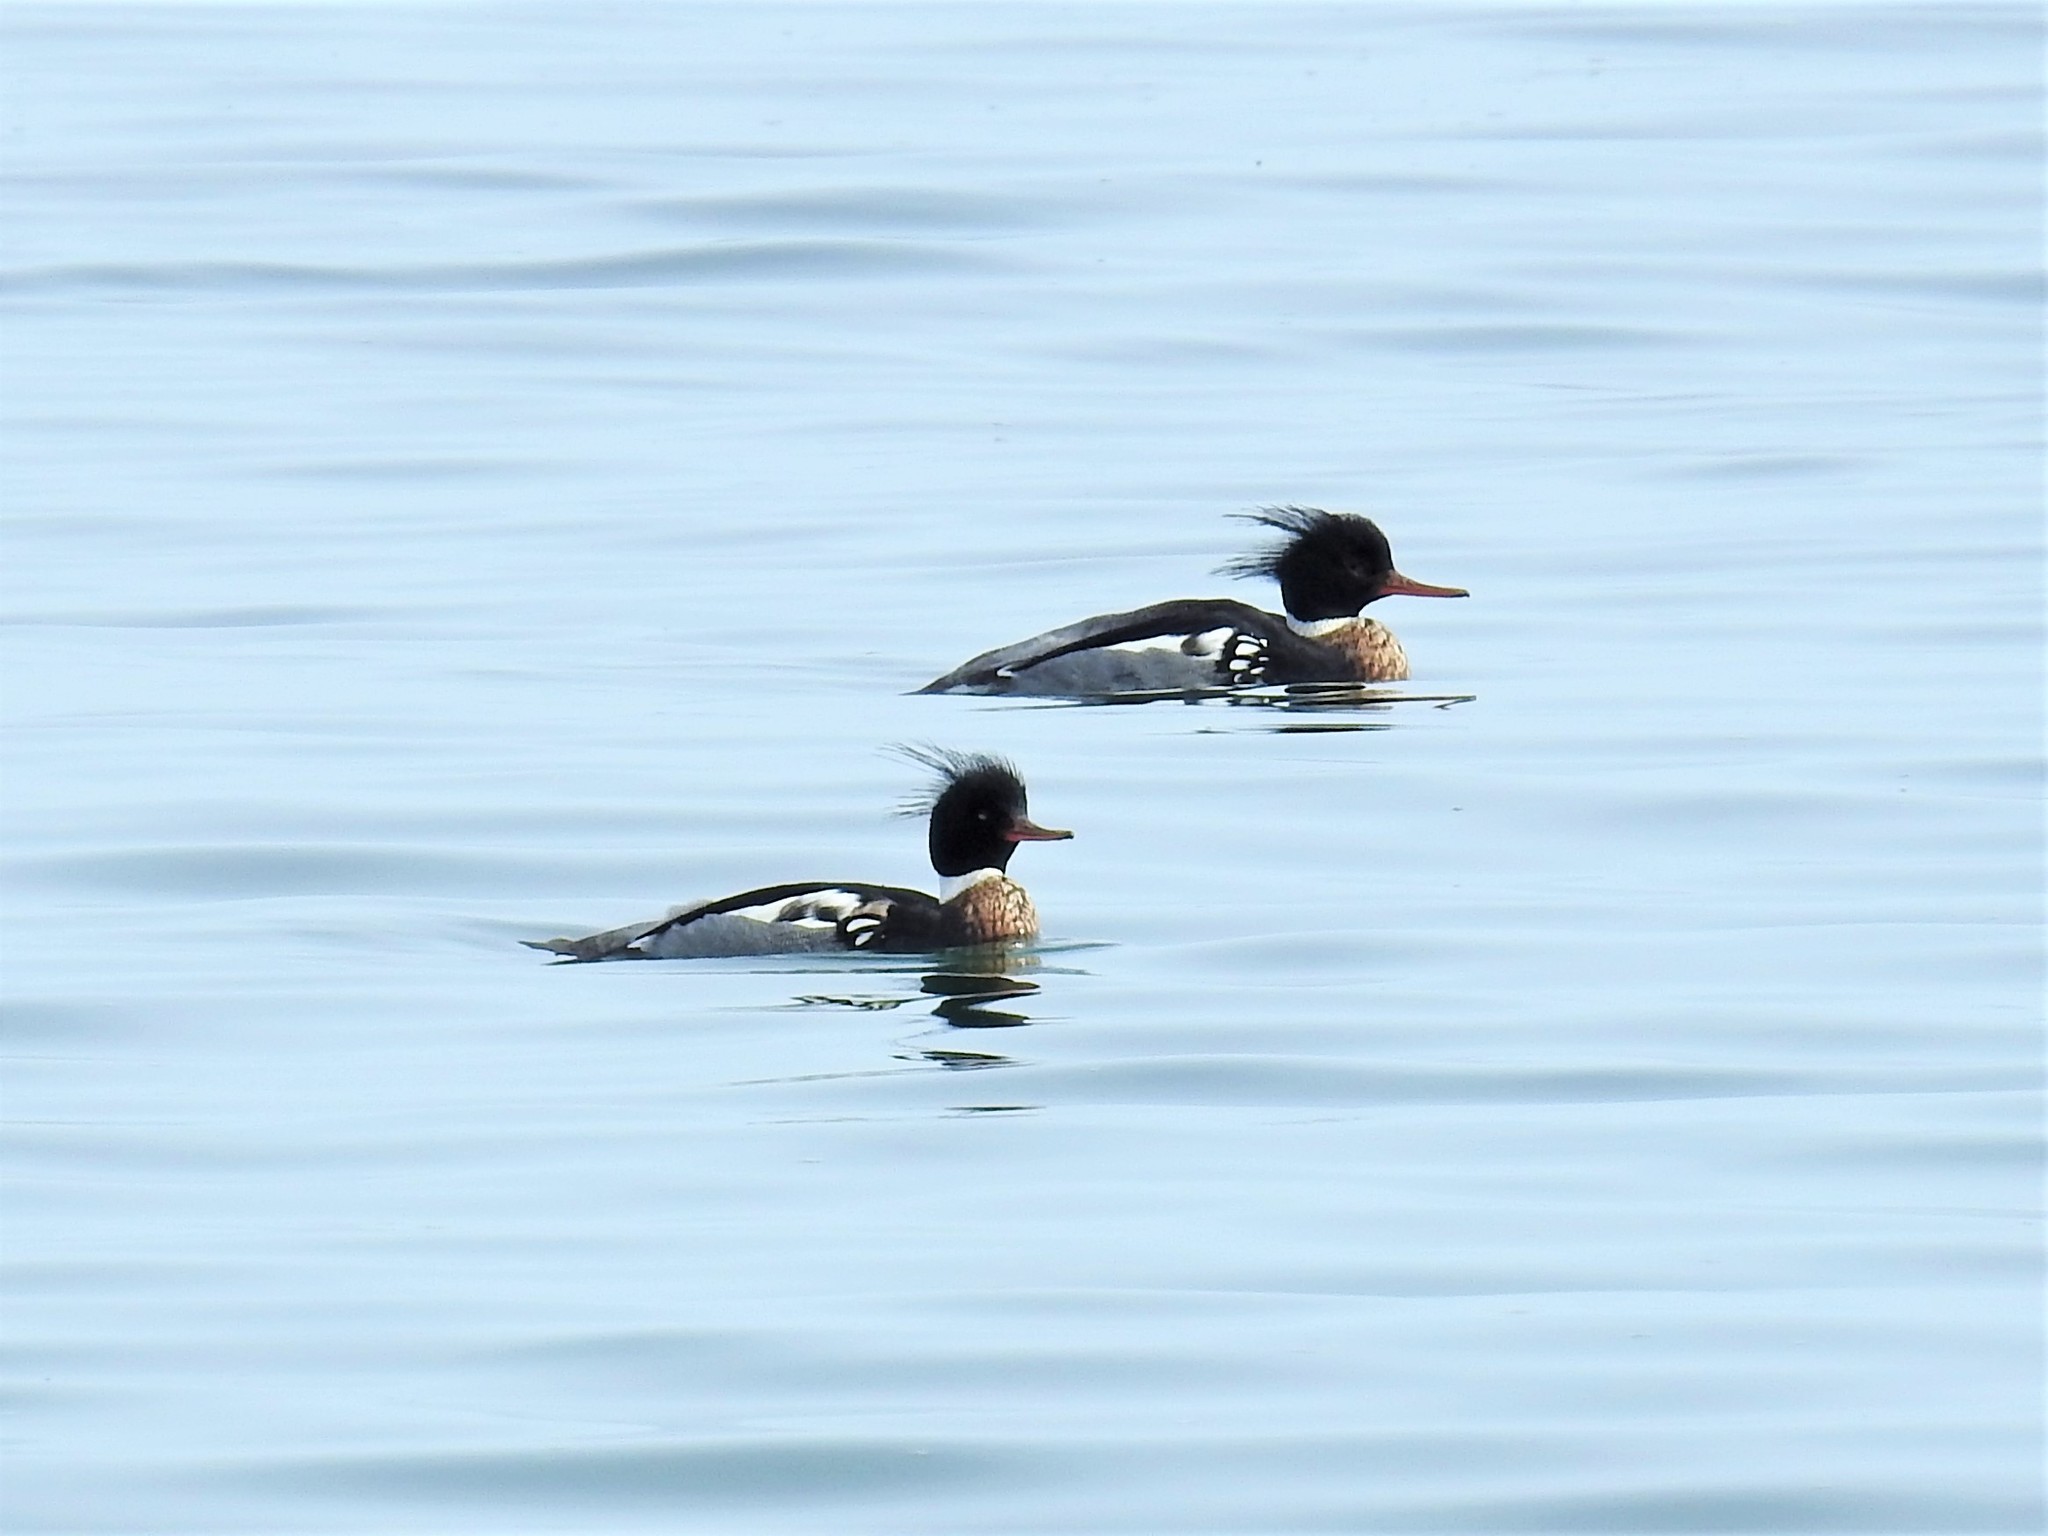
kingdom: Animalia
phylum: Chordata
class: Aves
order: Anseriformes
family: Anatidae
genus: Mergus
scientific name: Mergus serrator
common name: Red-breasted merganser
